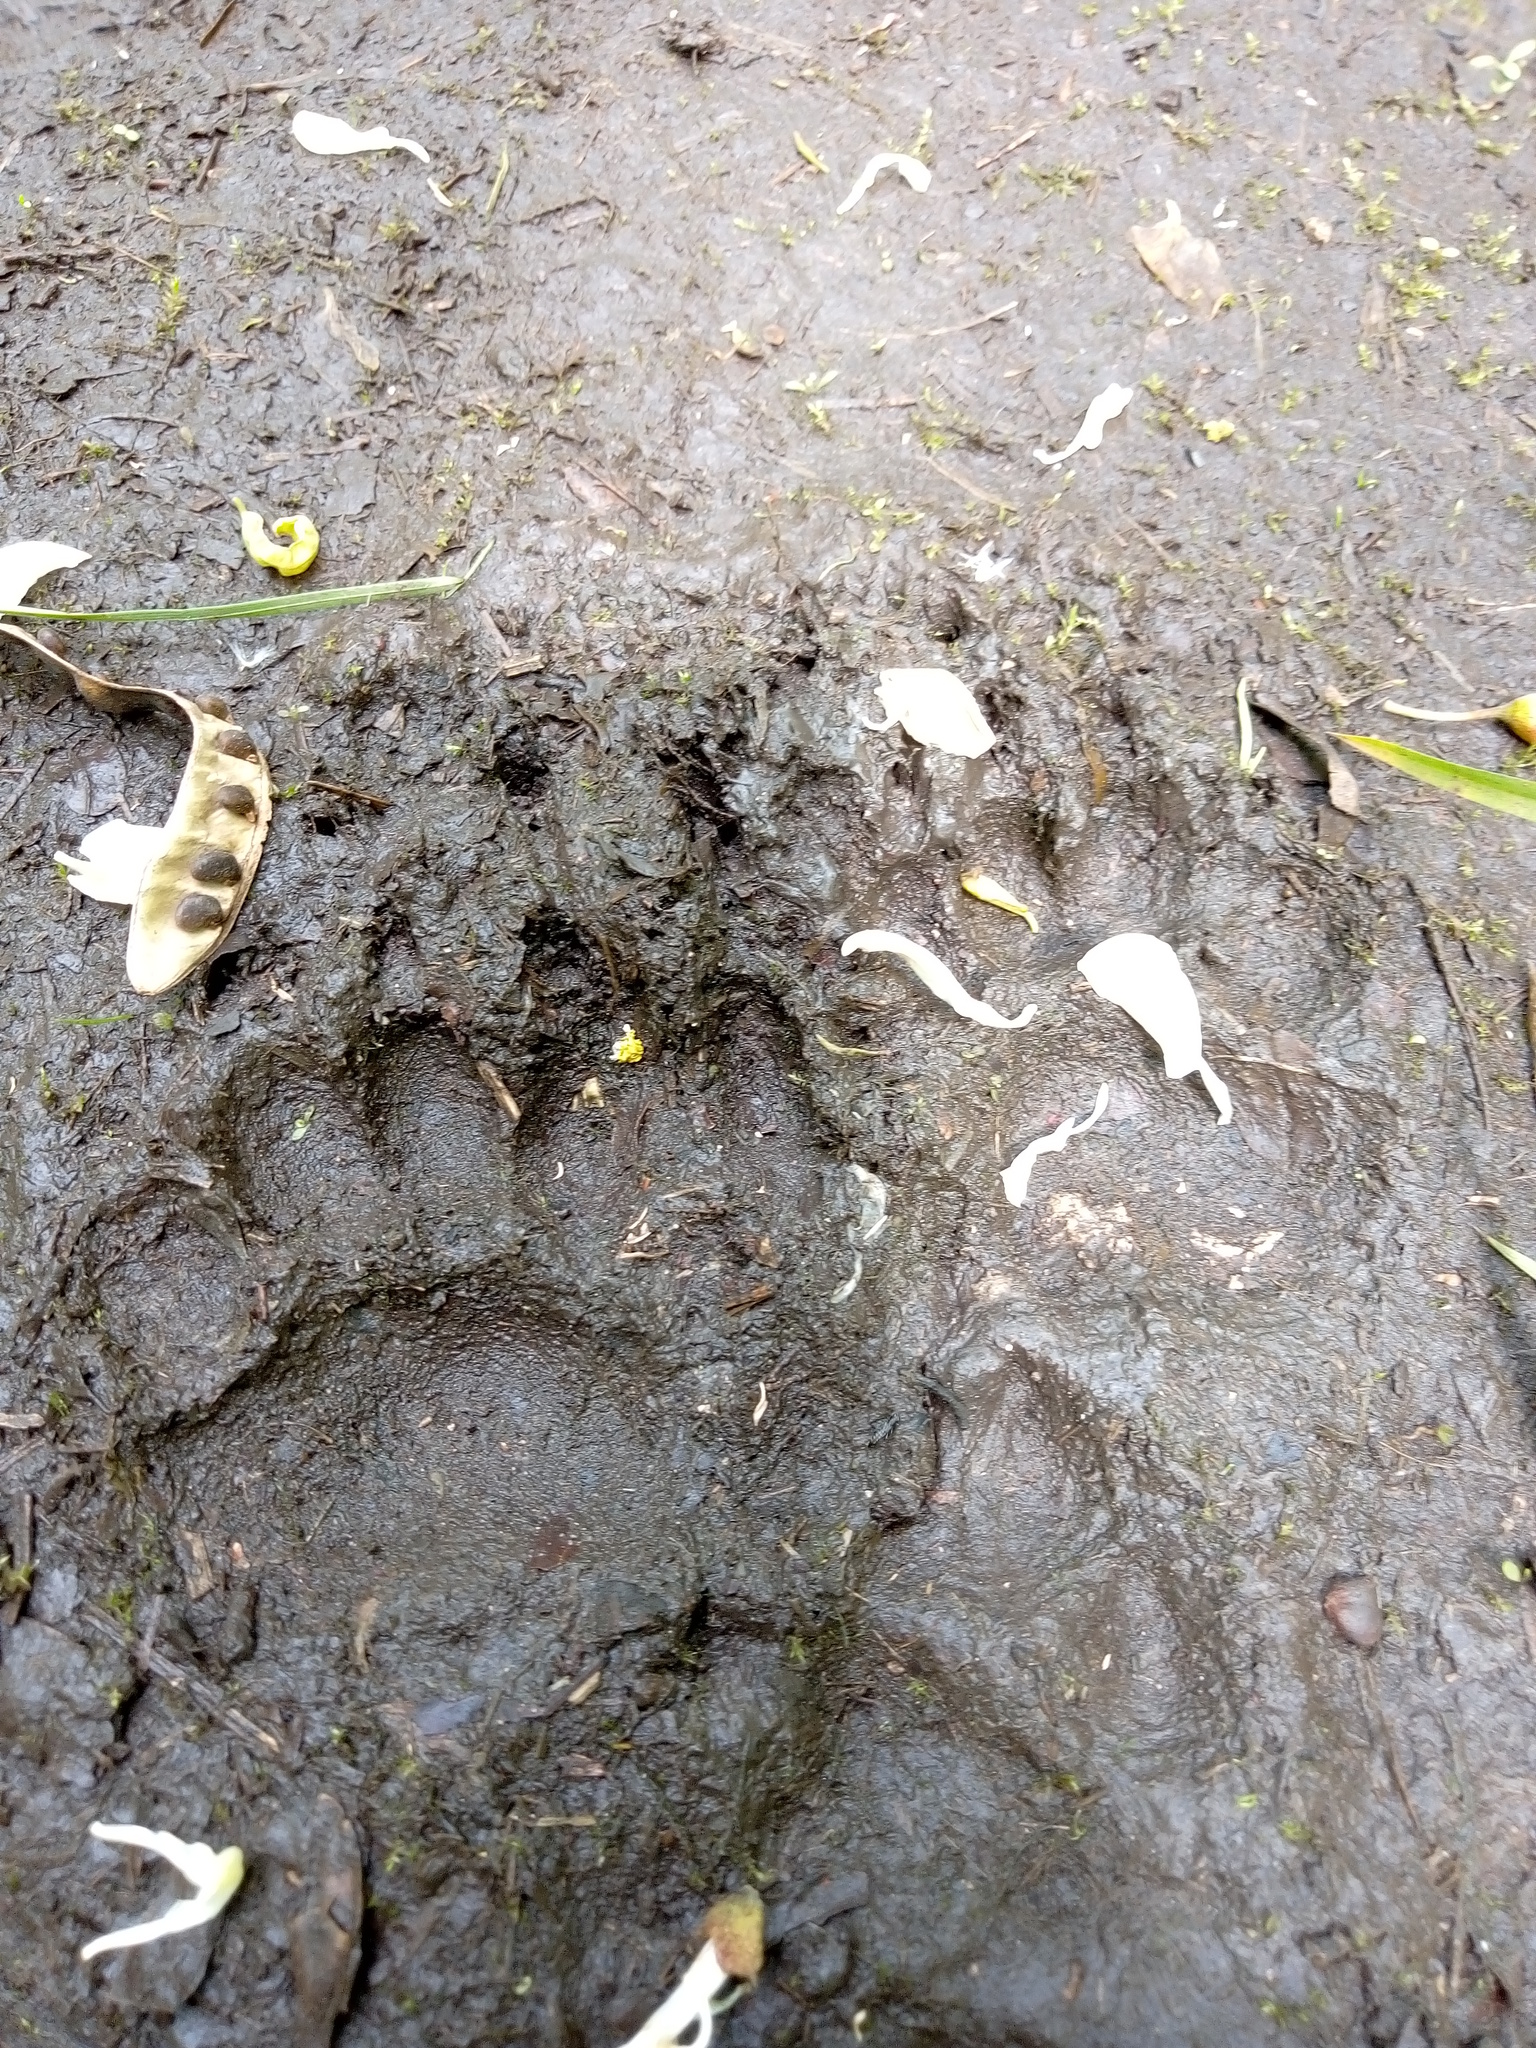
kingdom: Animalia
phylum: Chordata
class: Mammalia
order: Carnivora
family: Mustelidae
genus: Meles
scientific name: Meles meles
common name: Eurasian badger
